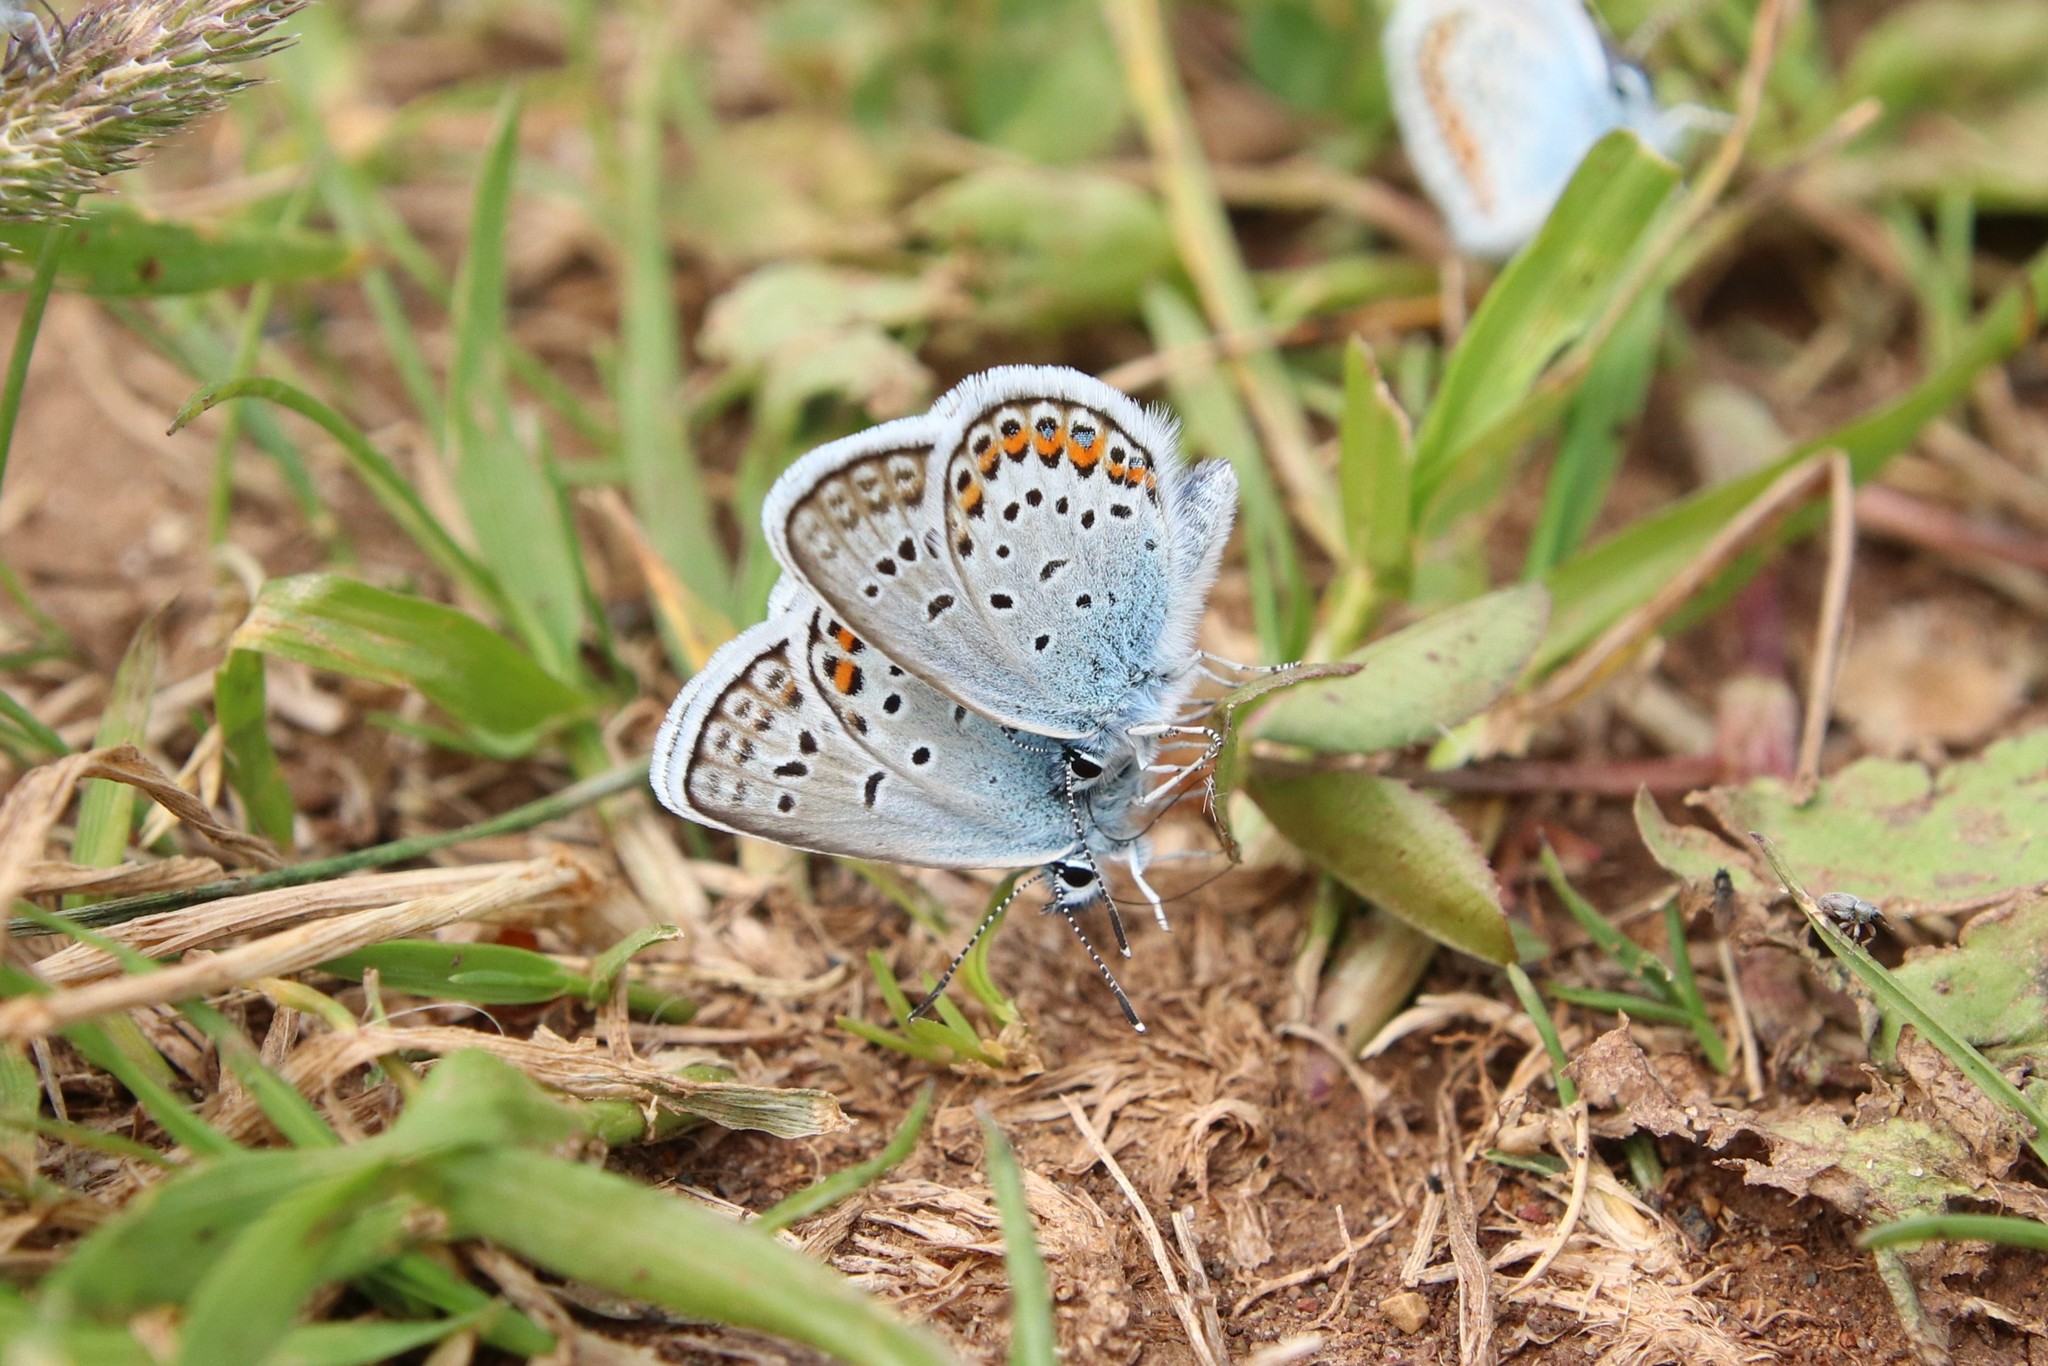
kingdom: Animalia
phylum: Arthropoda
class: Insecta
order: Lepidoptera
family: Lycaenidae
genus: Plebejus
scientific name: Plebejus argus
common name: Silver-studded blue
